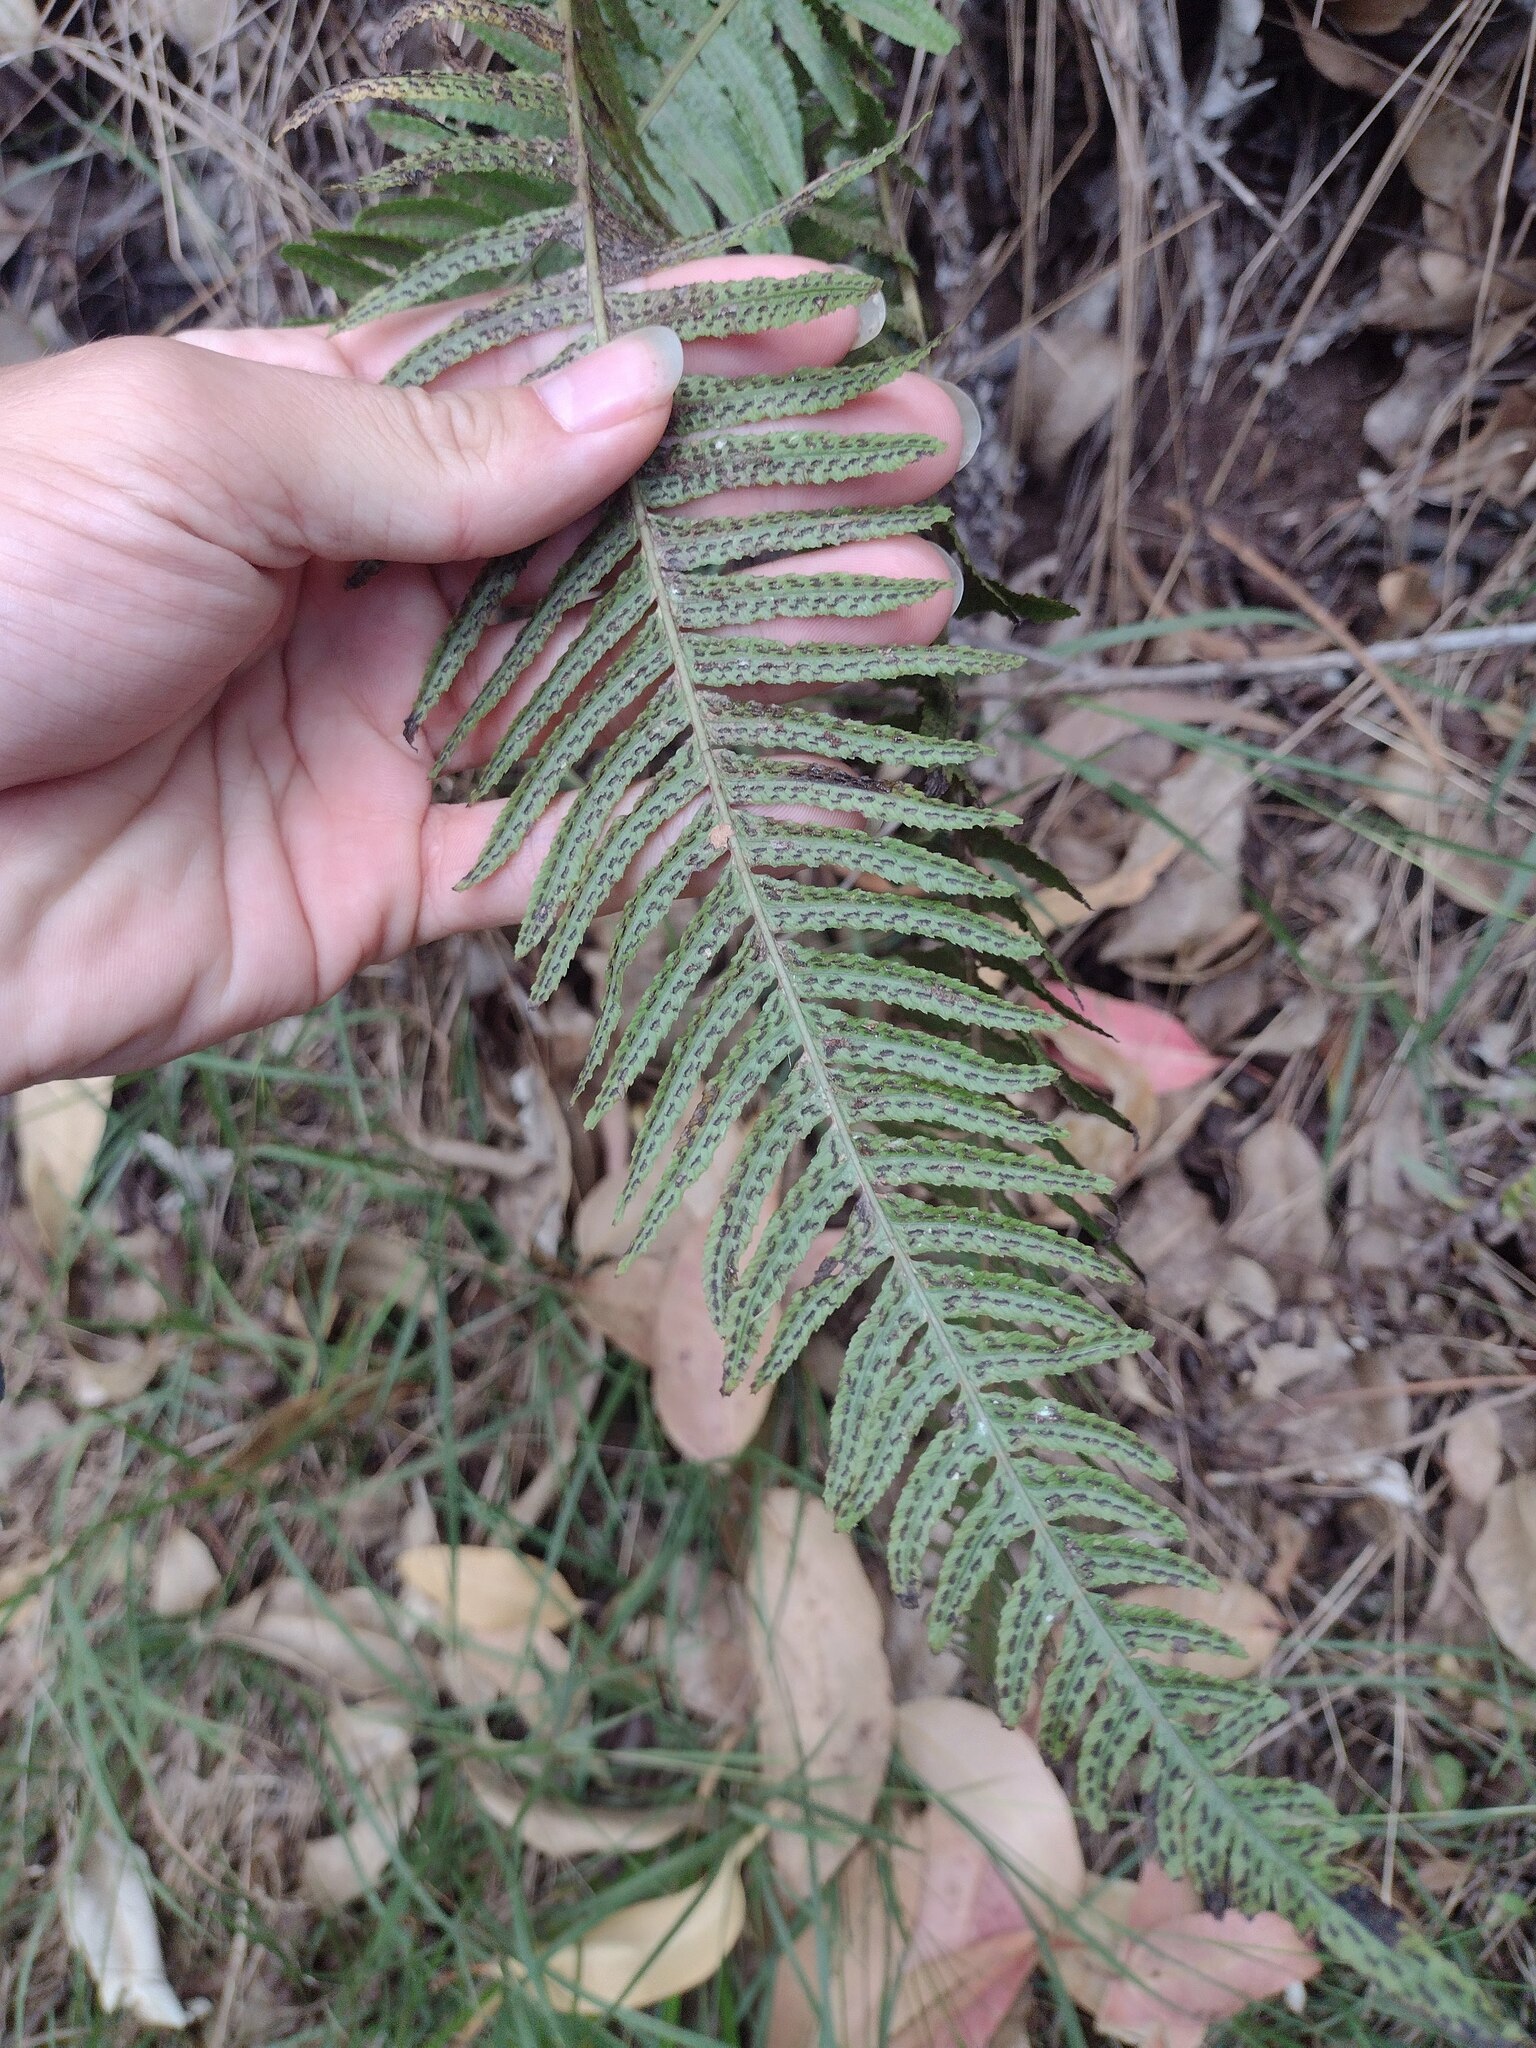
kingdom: Plantae
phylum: Tracheophyta
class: Polypodiopsida
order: Polypodiales
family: Blechnaceae
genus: Doodia
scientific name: Doodia kunthiana
